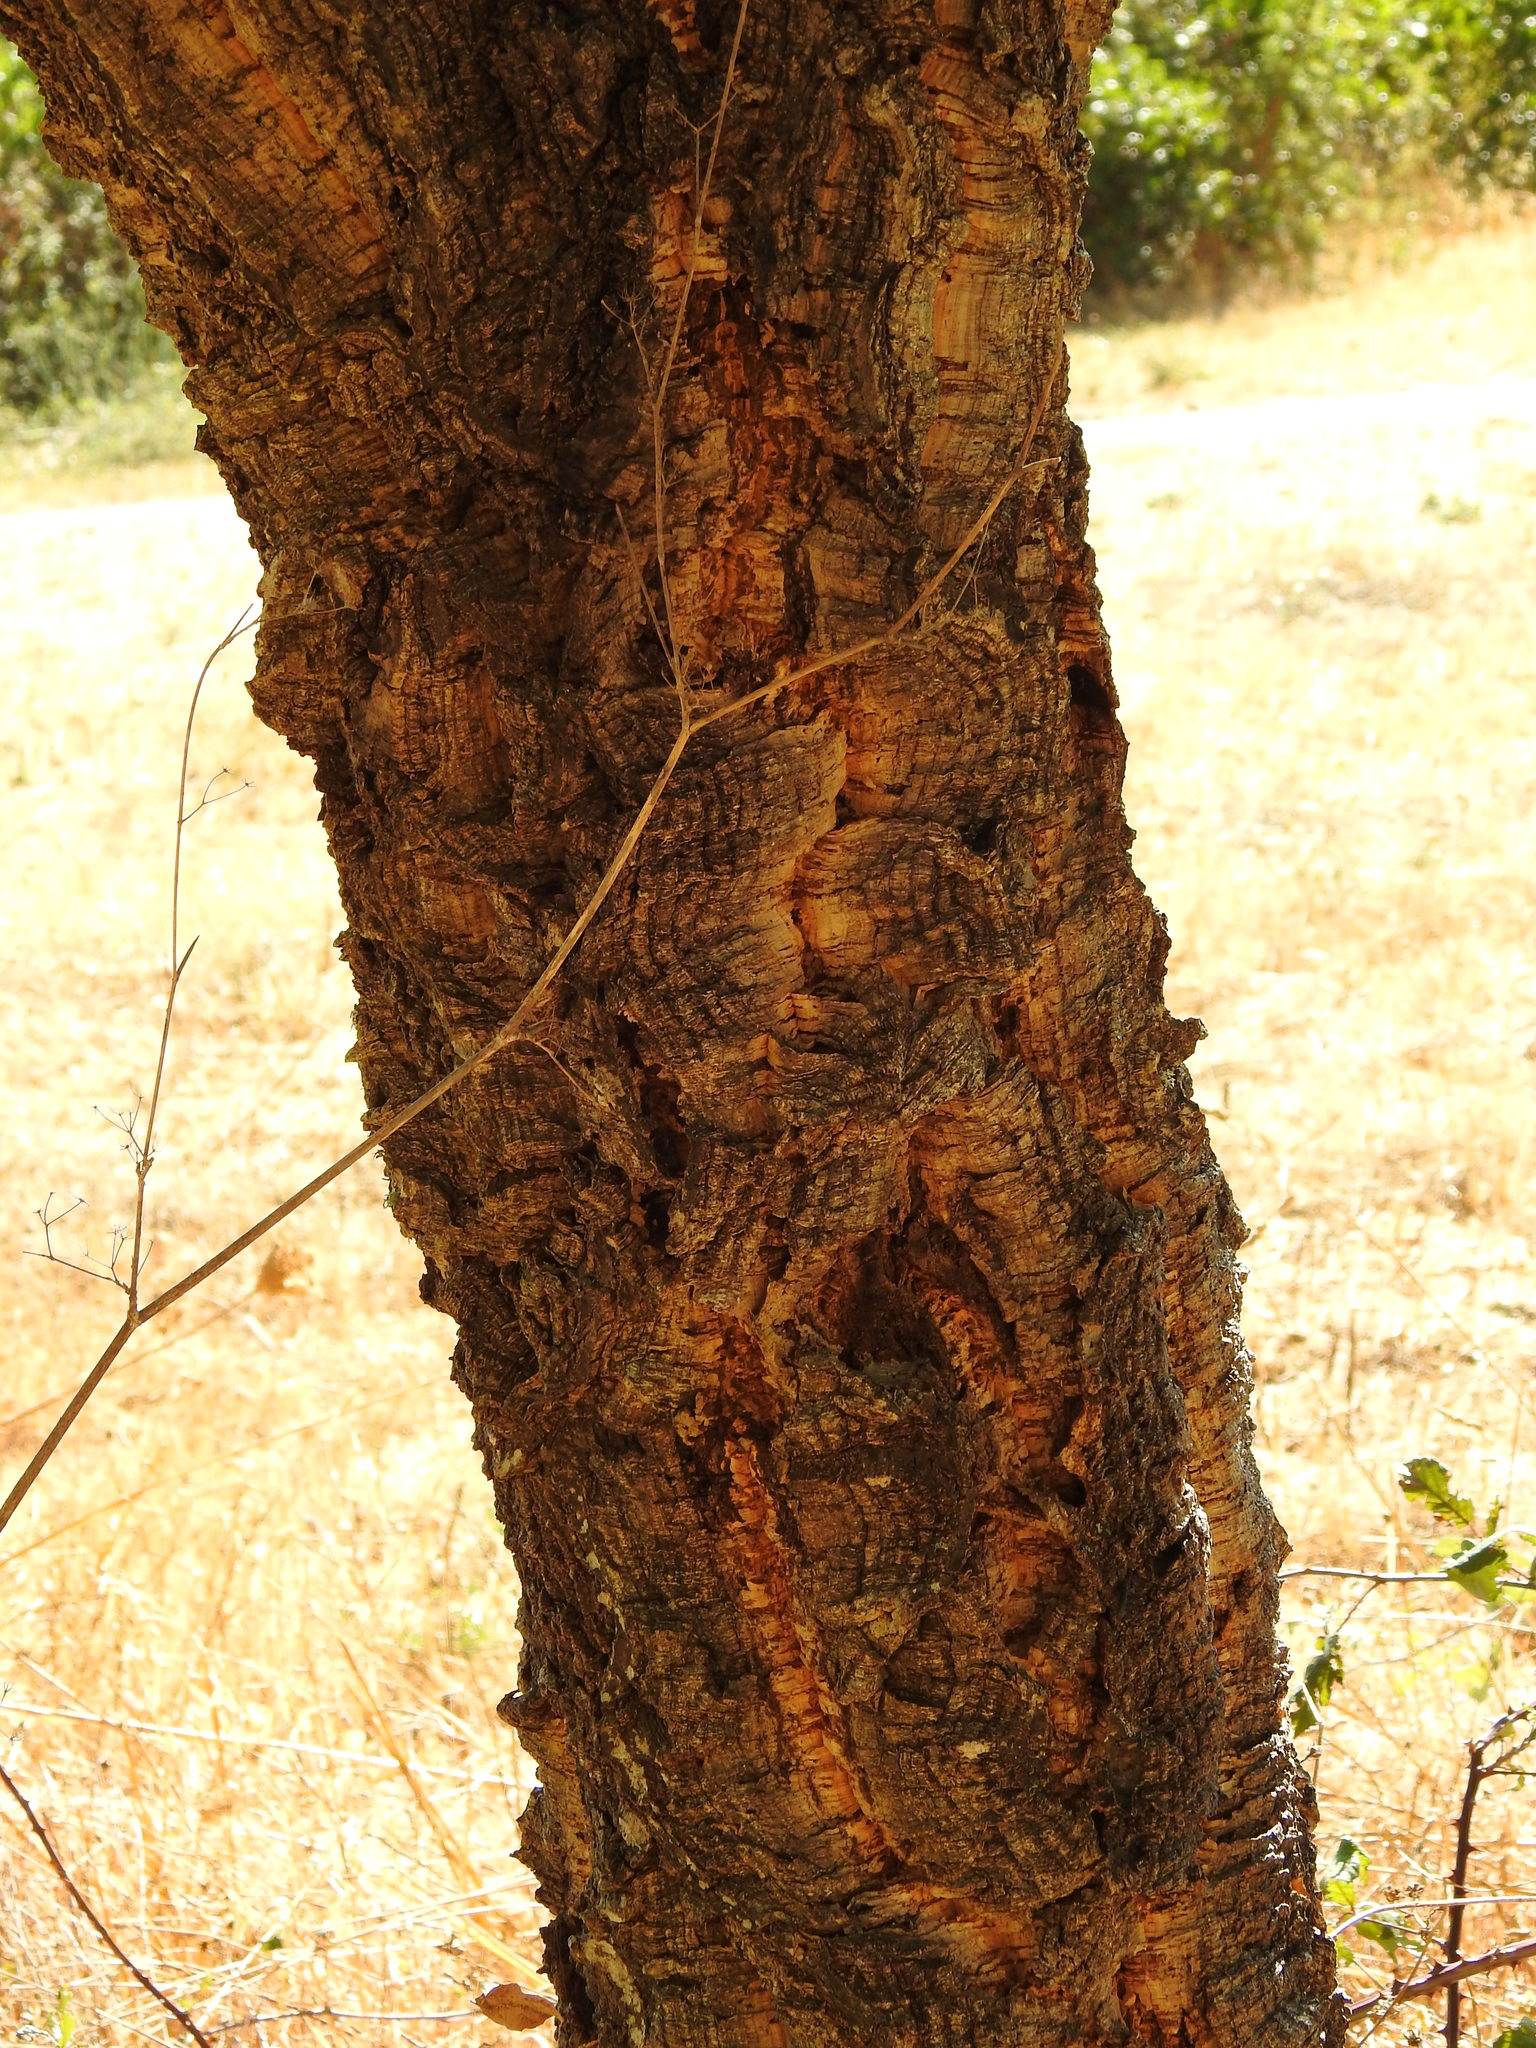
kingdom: Plantae
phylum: Tracheophyta
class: Magnoliopsida
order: Fagales
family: Fagaceae
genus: Quercus
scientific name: Quercus suber
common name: Cork oak
